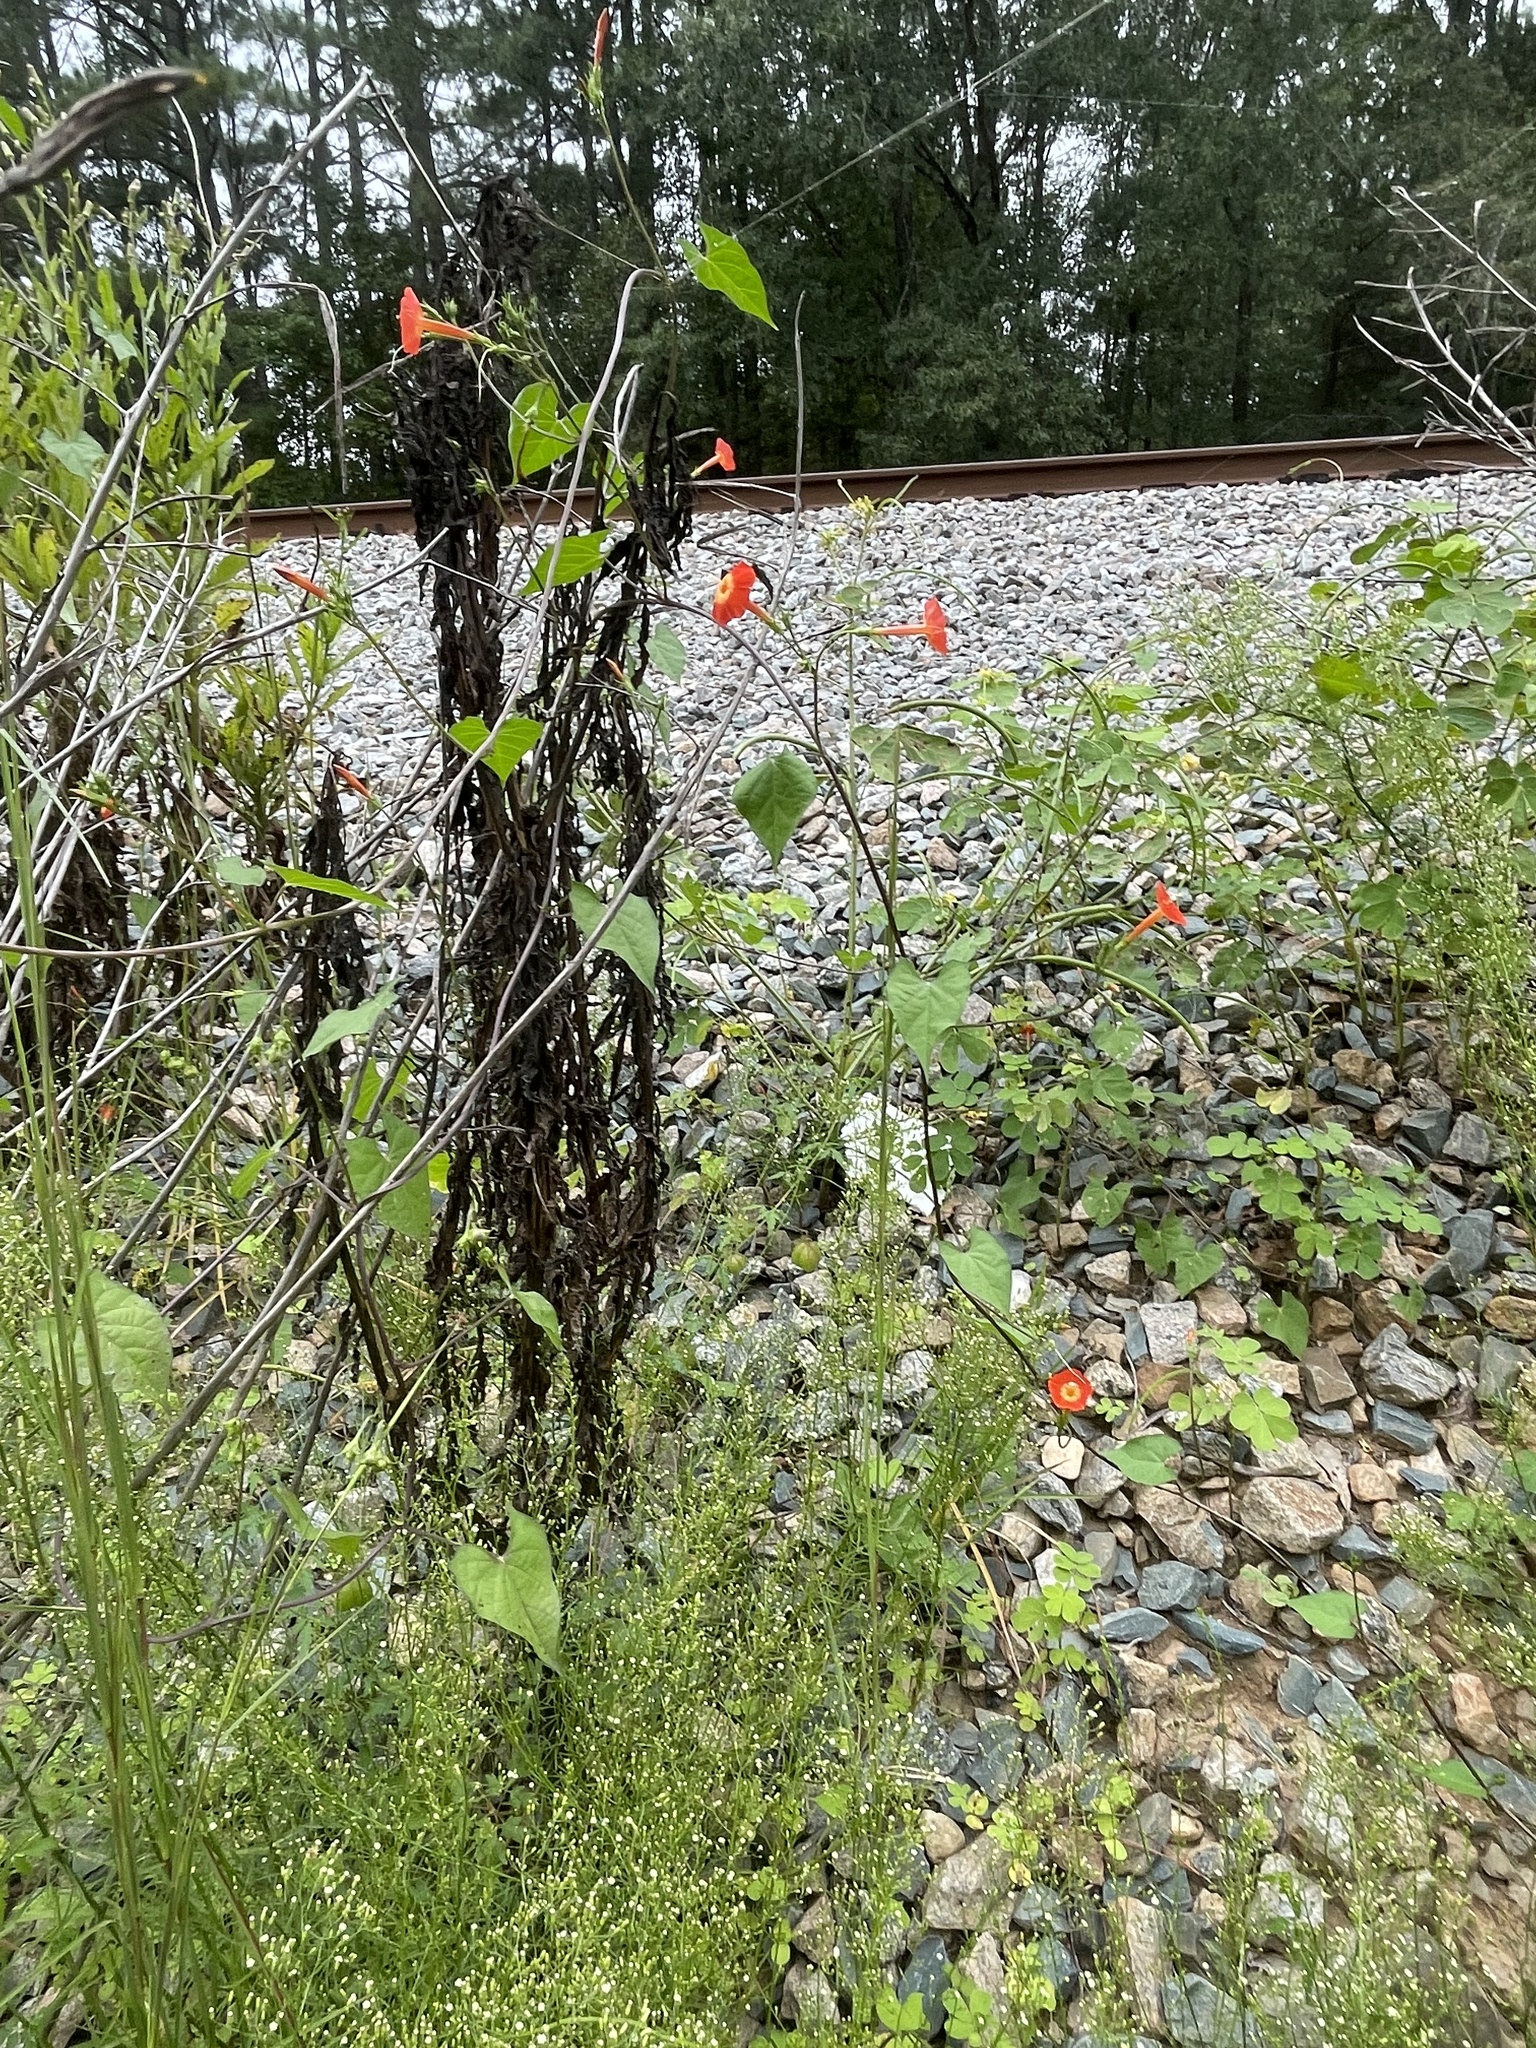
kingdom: Plantae
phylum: Tracheophyta
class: Magnoliopsida
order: Solanales
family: Convolvulaceae
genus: Ipomoea
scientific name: Ipomoea coccinea
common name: Red morning-glory
